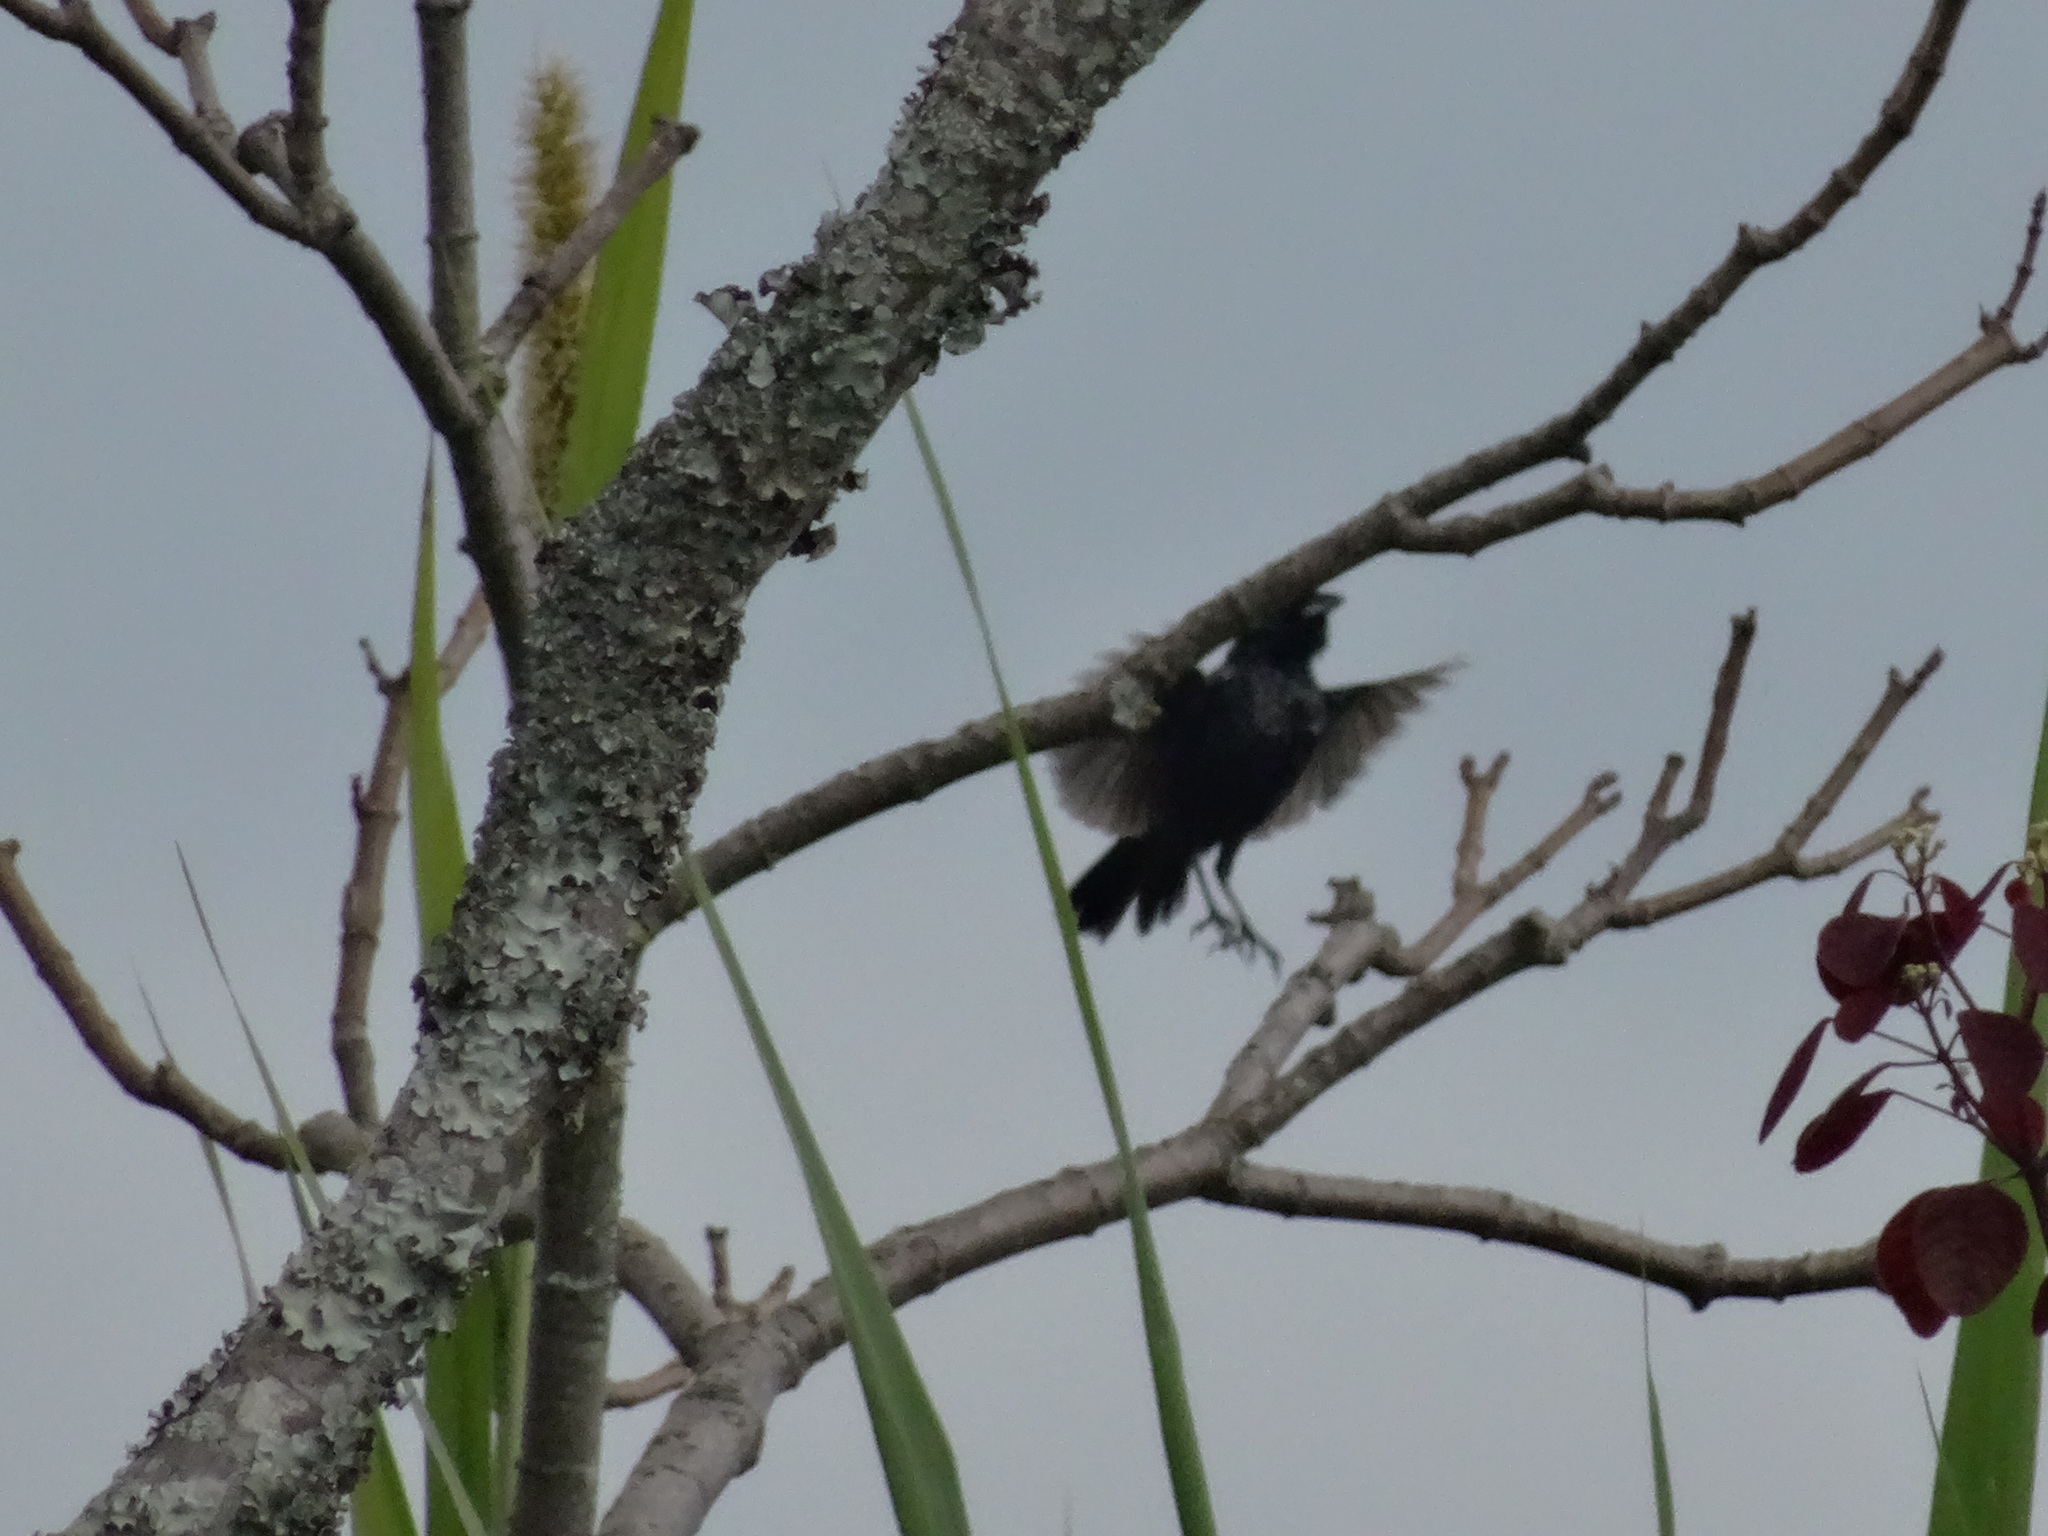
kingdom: Animalia
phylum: Chordata
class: Aves
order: Passeriformes
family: Thraupidae
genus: Volatinia
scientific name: Volatinia jacarina
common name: Blue-black grassquit
